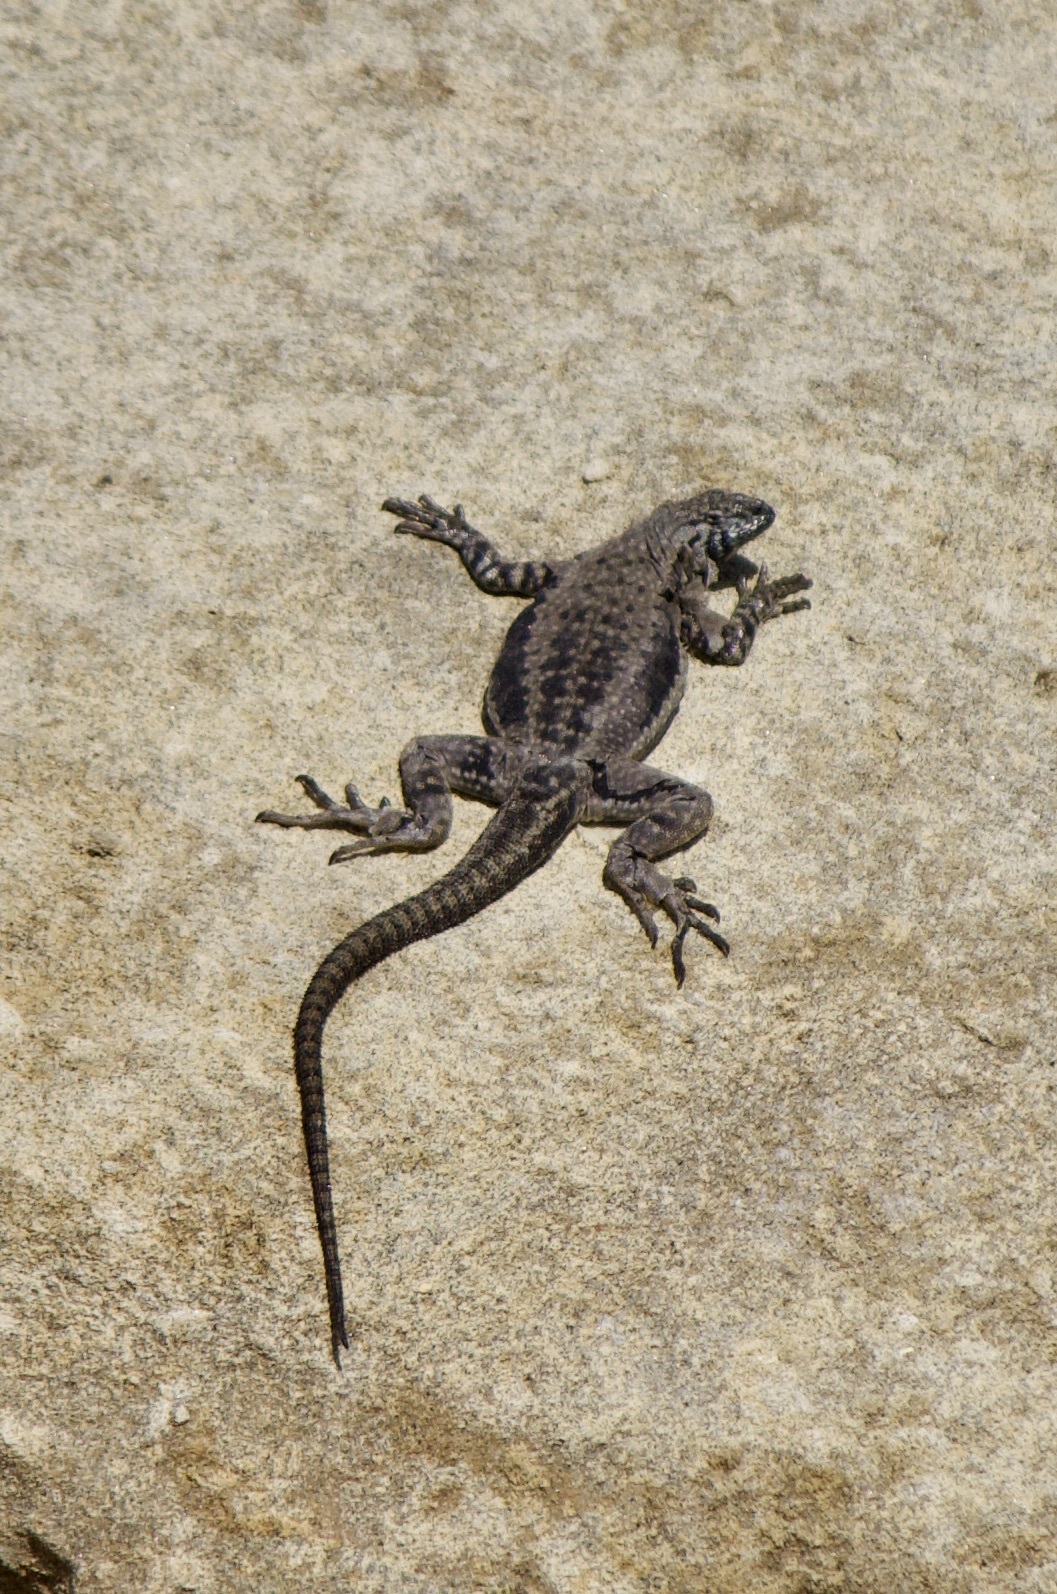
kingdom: Animalia
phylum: Chordata
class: Squamata
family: Tropiduridae
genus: Microlophus
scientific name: Microlophus atacamensis
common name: Atacamen pacific iguana
